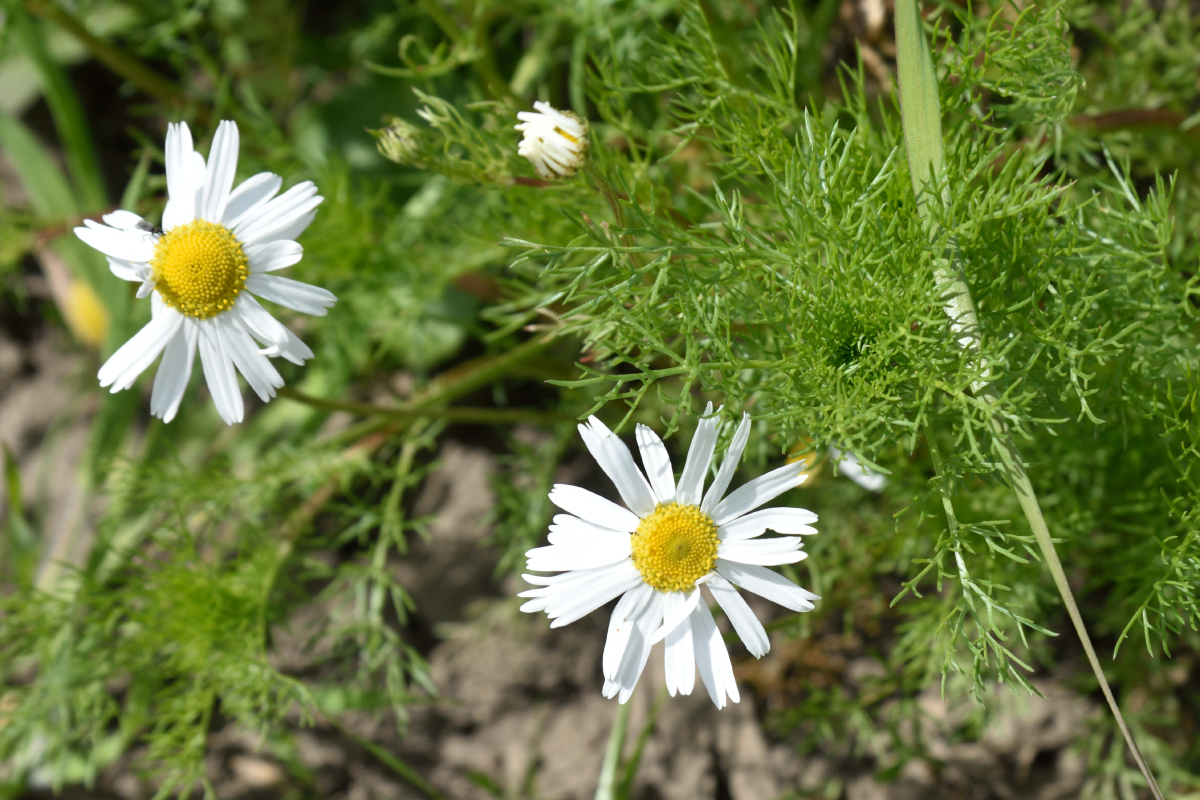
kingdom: Plantae
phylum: Tracheophyta
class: Magnoliopsida
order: Asterales
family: Asteraceae
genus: Tripleurospermum
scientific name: Tripleurospermum inodorum
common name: Scentless mayweed
